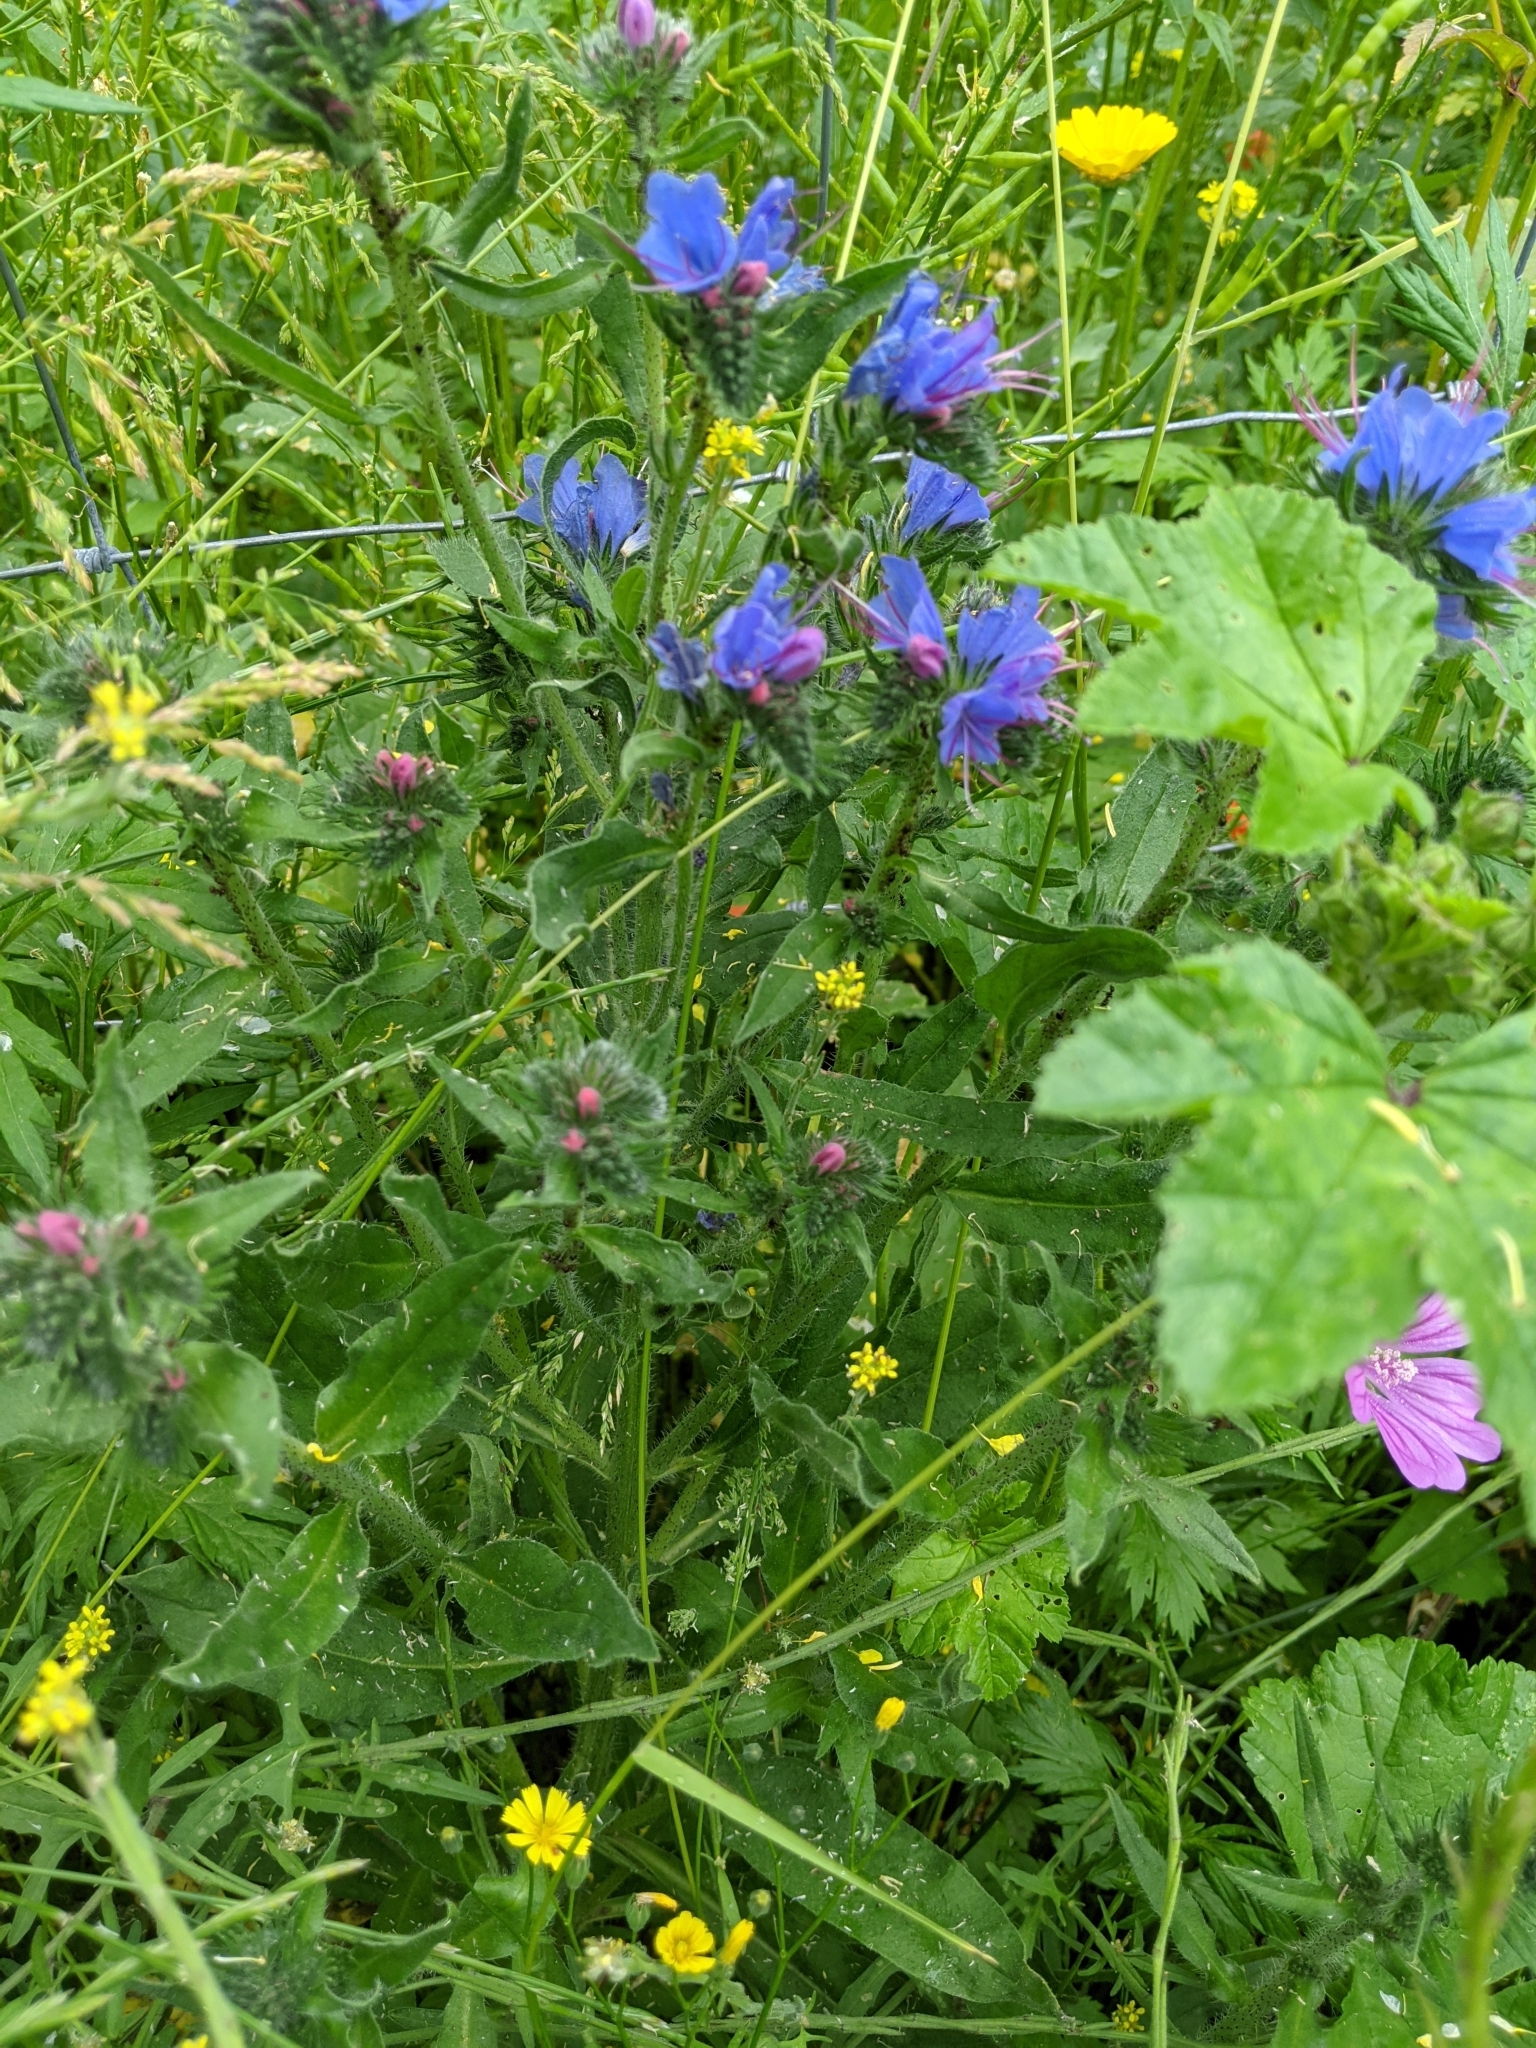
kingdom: Plantae
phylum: Tracheophyta
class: Magnoliopsida
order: Boraginales
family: Boraginaceae
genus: Echium
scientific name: Echium vulgare
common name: Common viper's bugloss
